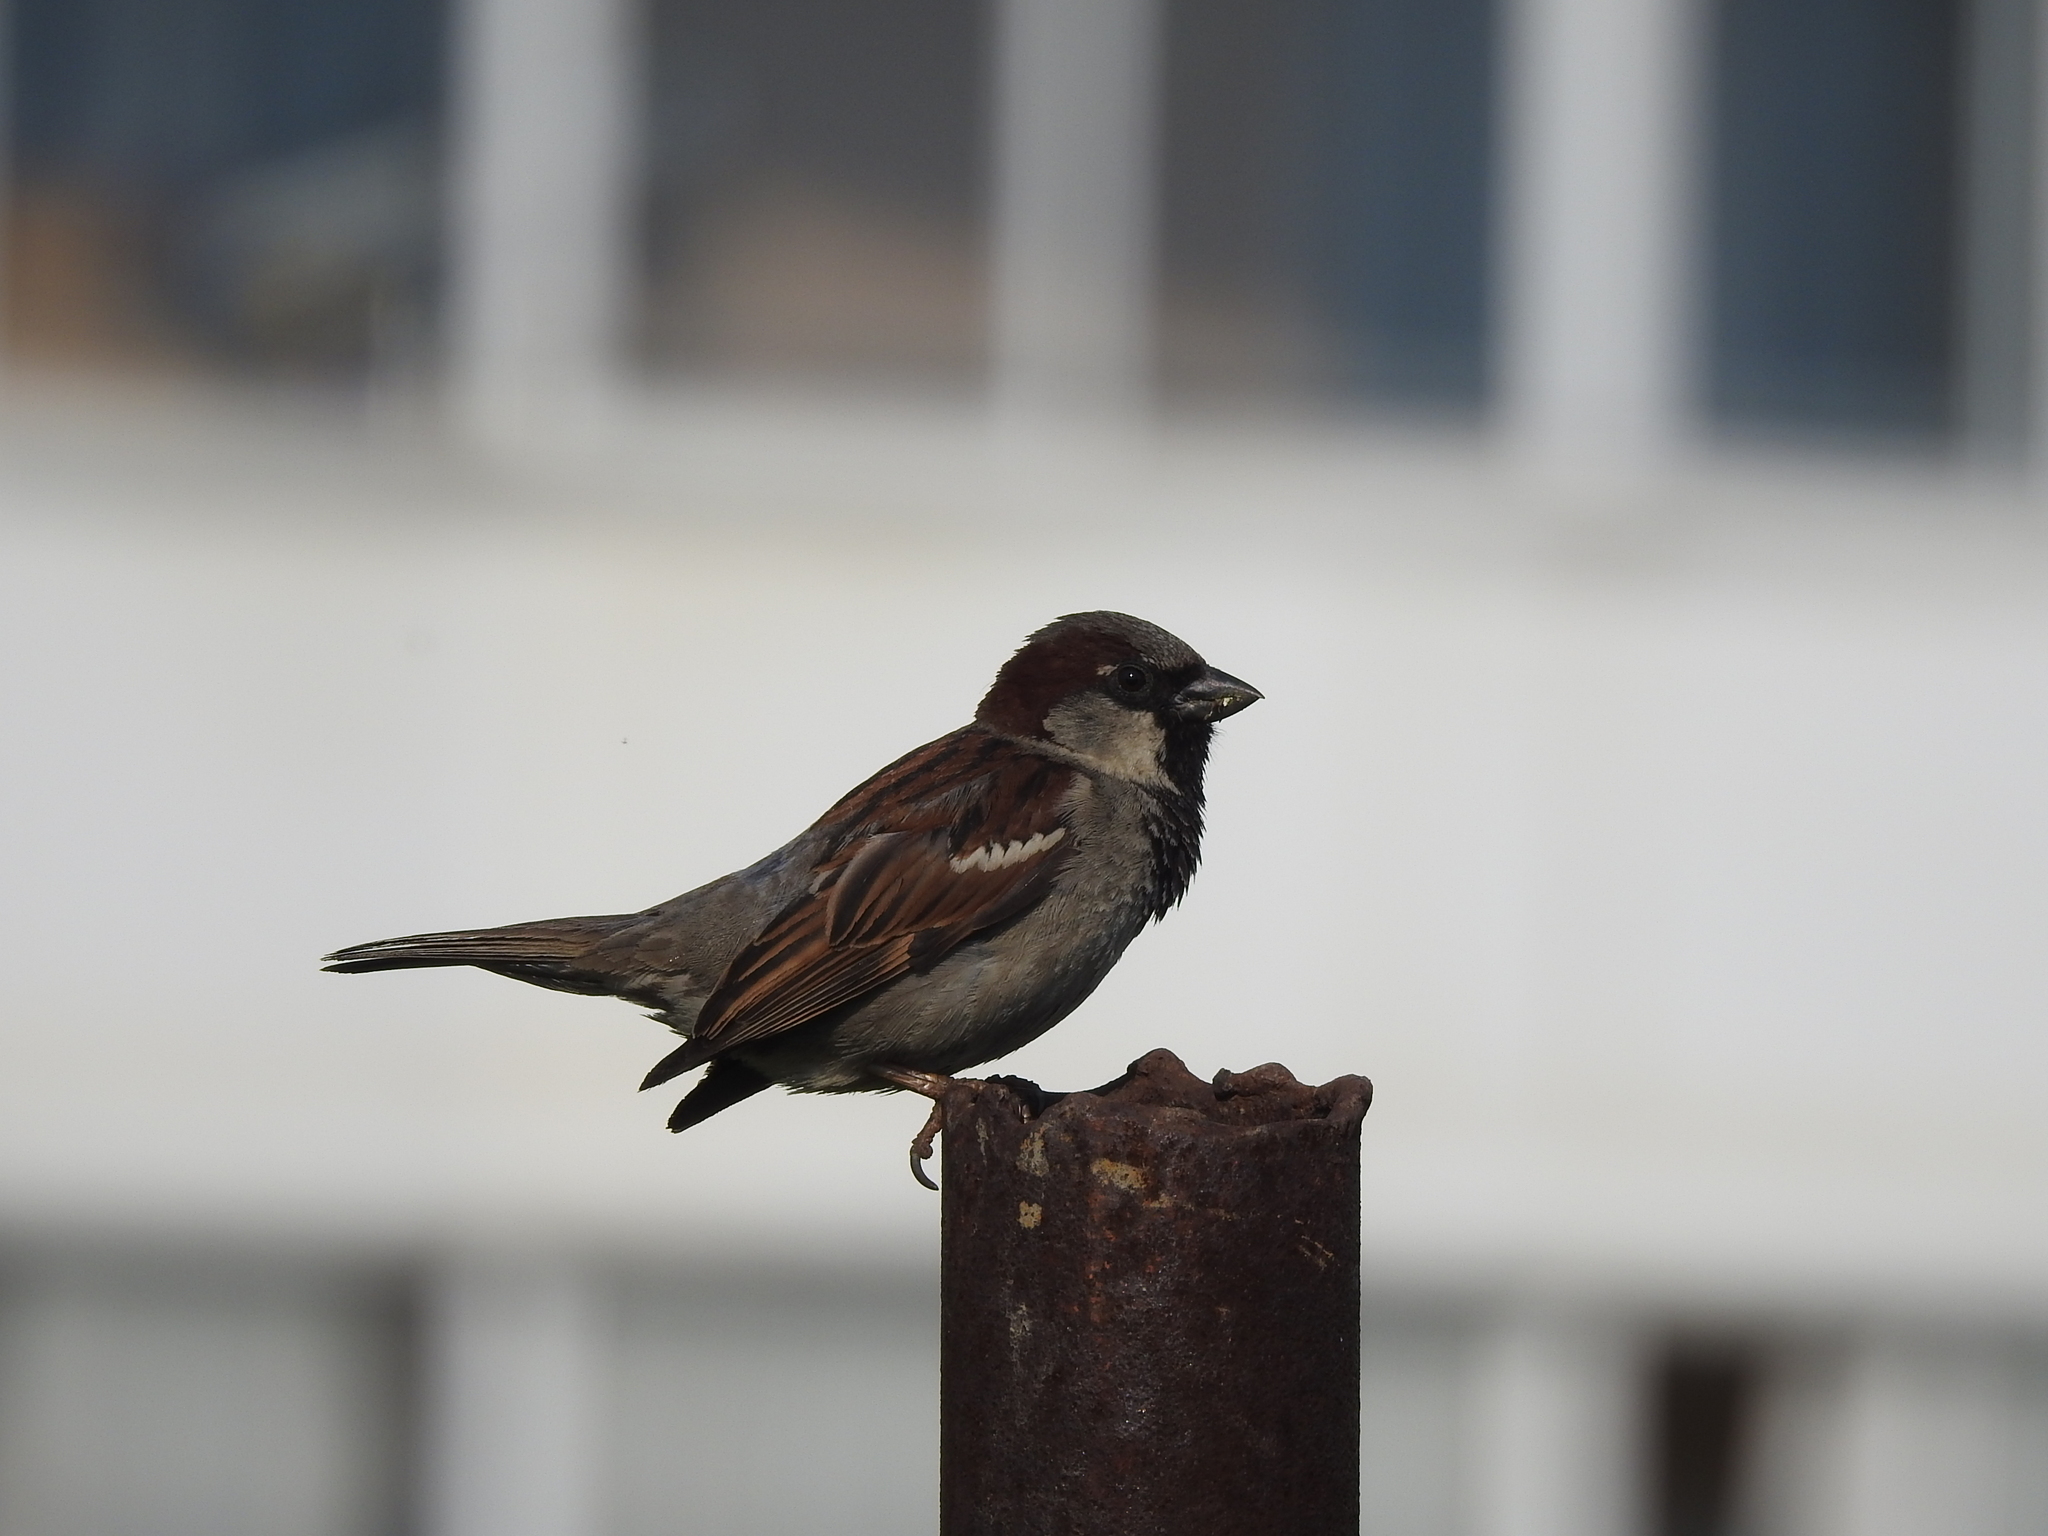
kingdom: Animalia
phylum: Chordata
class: Aves
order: Passeriformes
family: Passeridae
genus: Passer
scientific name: Passer domesticus
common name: House sparrow
